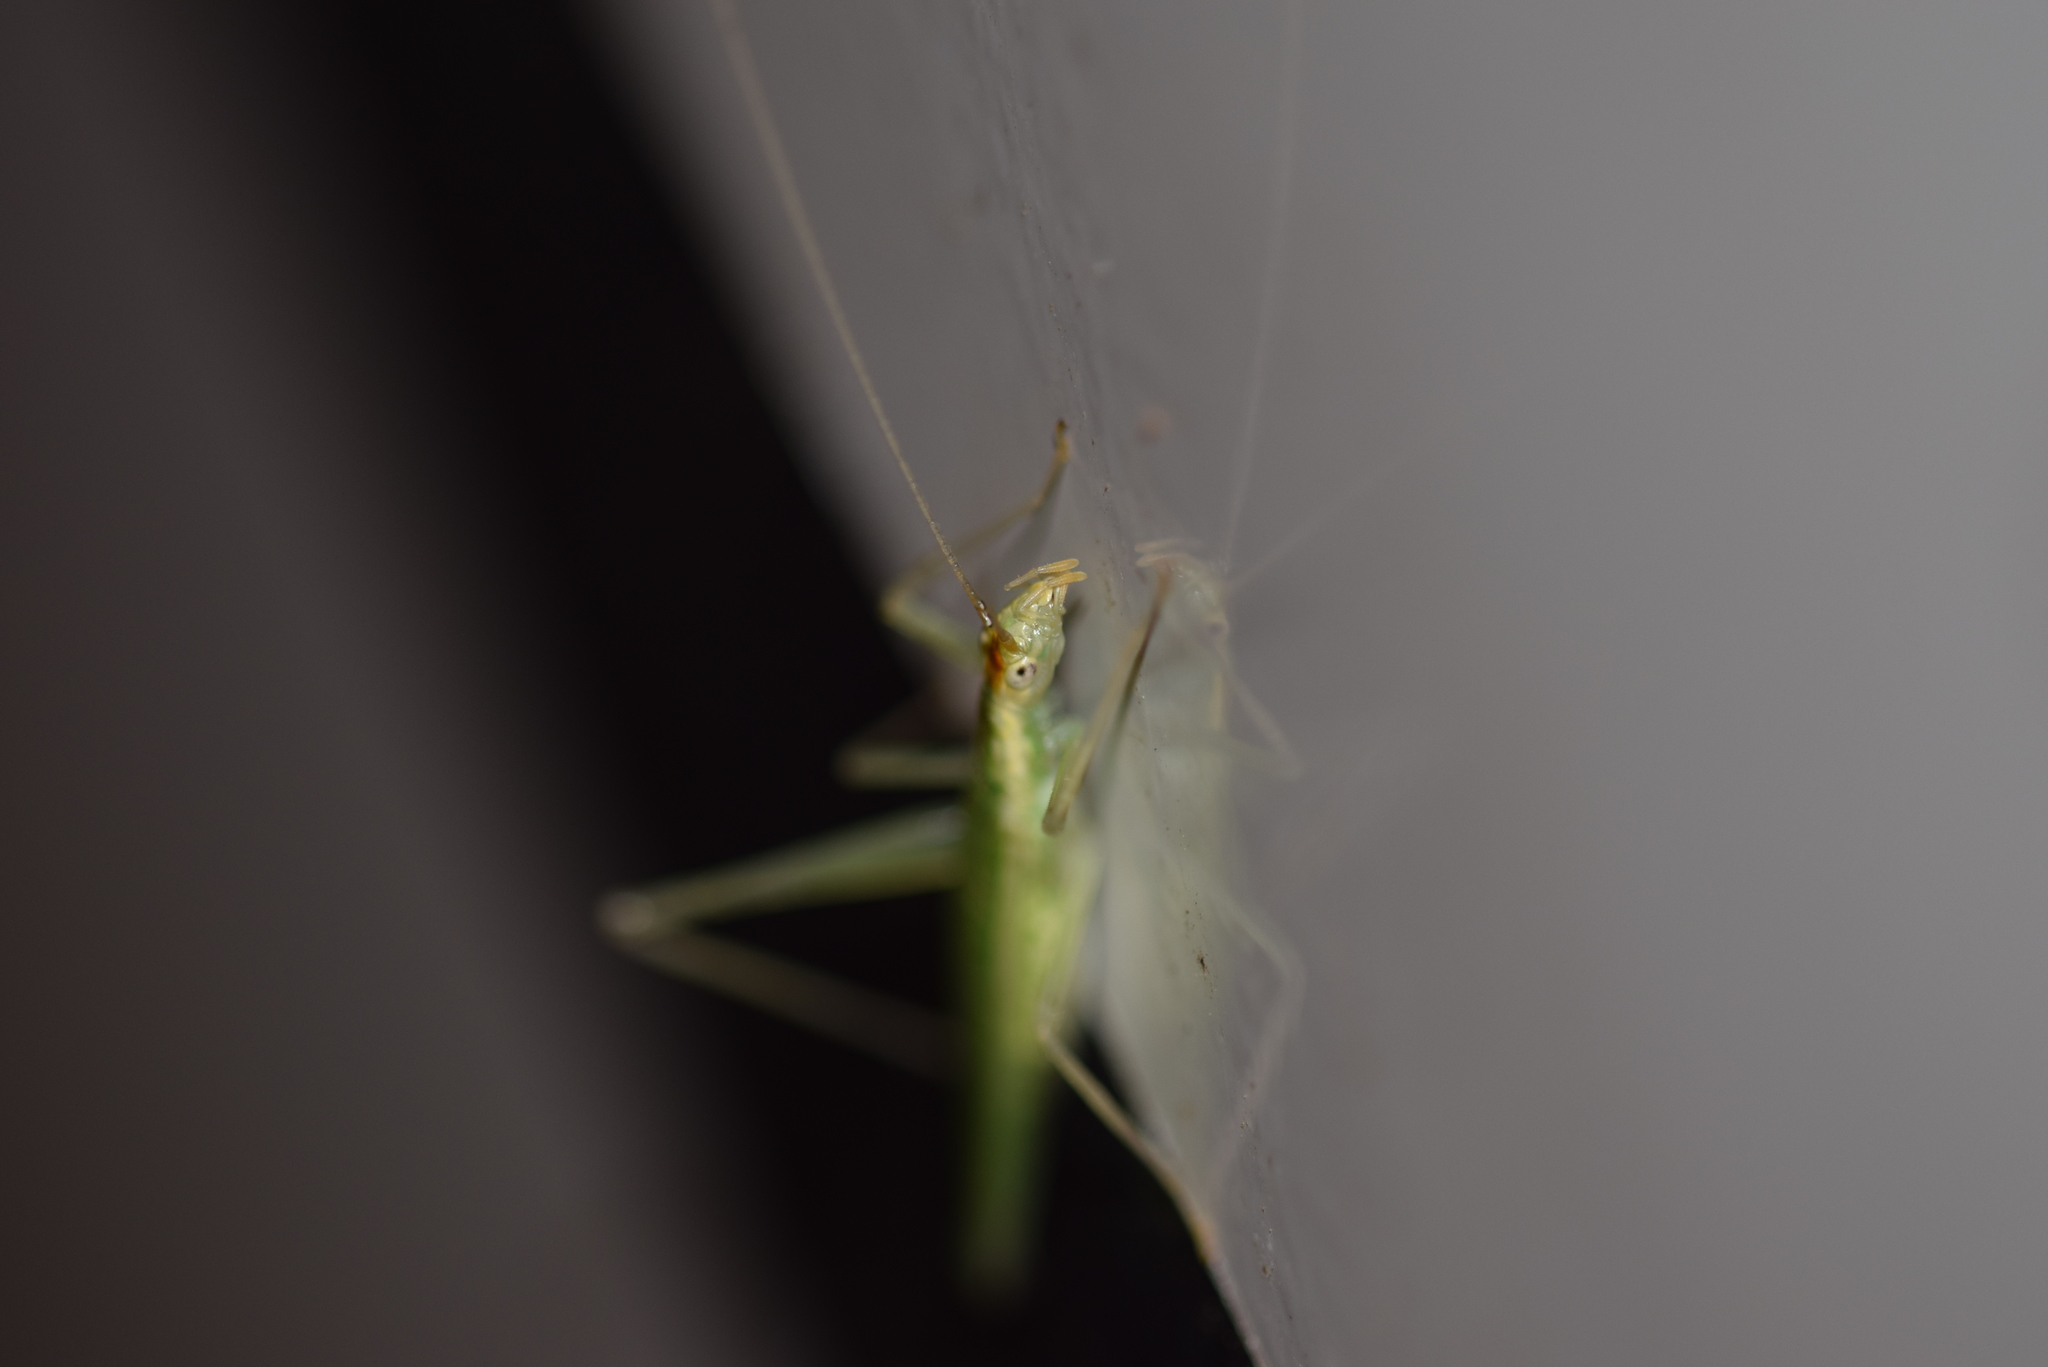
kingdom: Animalia
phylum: Arthropoda
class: Insecta
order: Orthoptera
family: Gryllidae
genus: Oecanthus
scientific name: Oecanthus niveus
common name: Narrow-winged tree cricket
